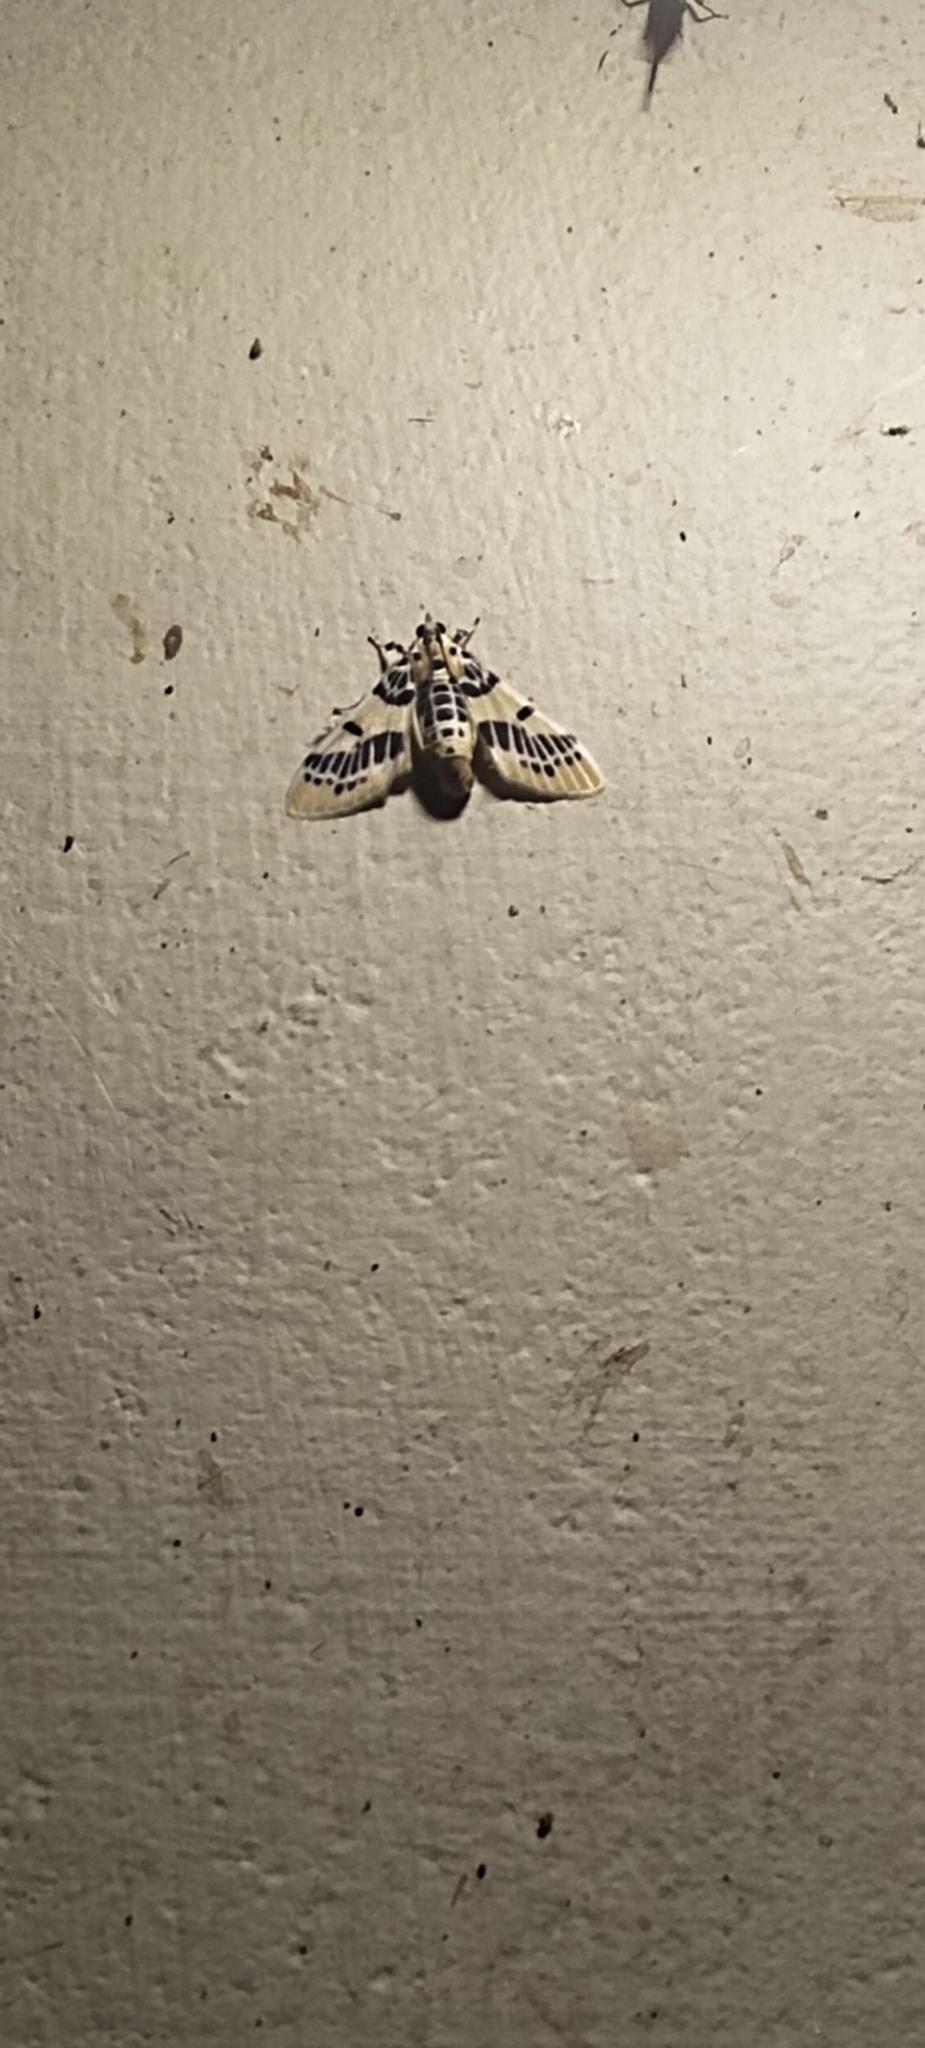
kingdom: Animalia
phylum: Arthropoda
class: Insecta
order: Lepidoptera
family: Crambidae
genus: Pachynoa
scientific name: Pachynoa spilosomoides
